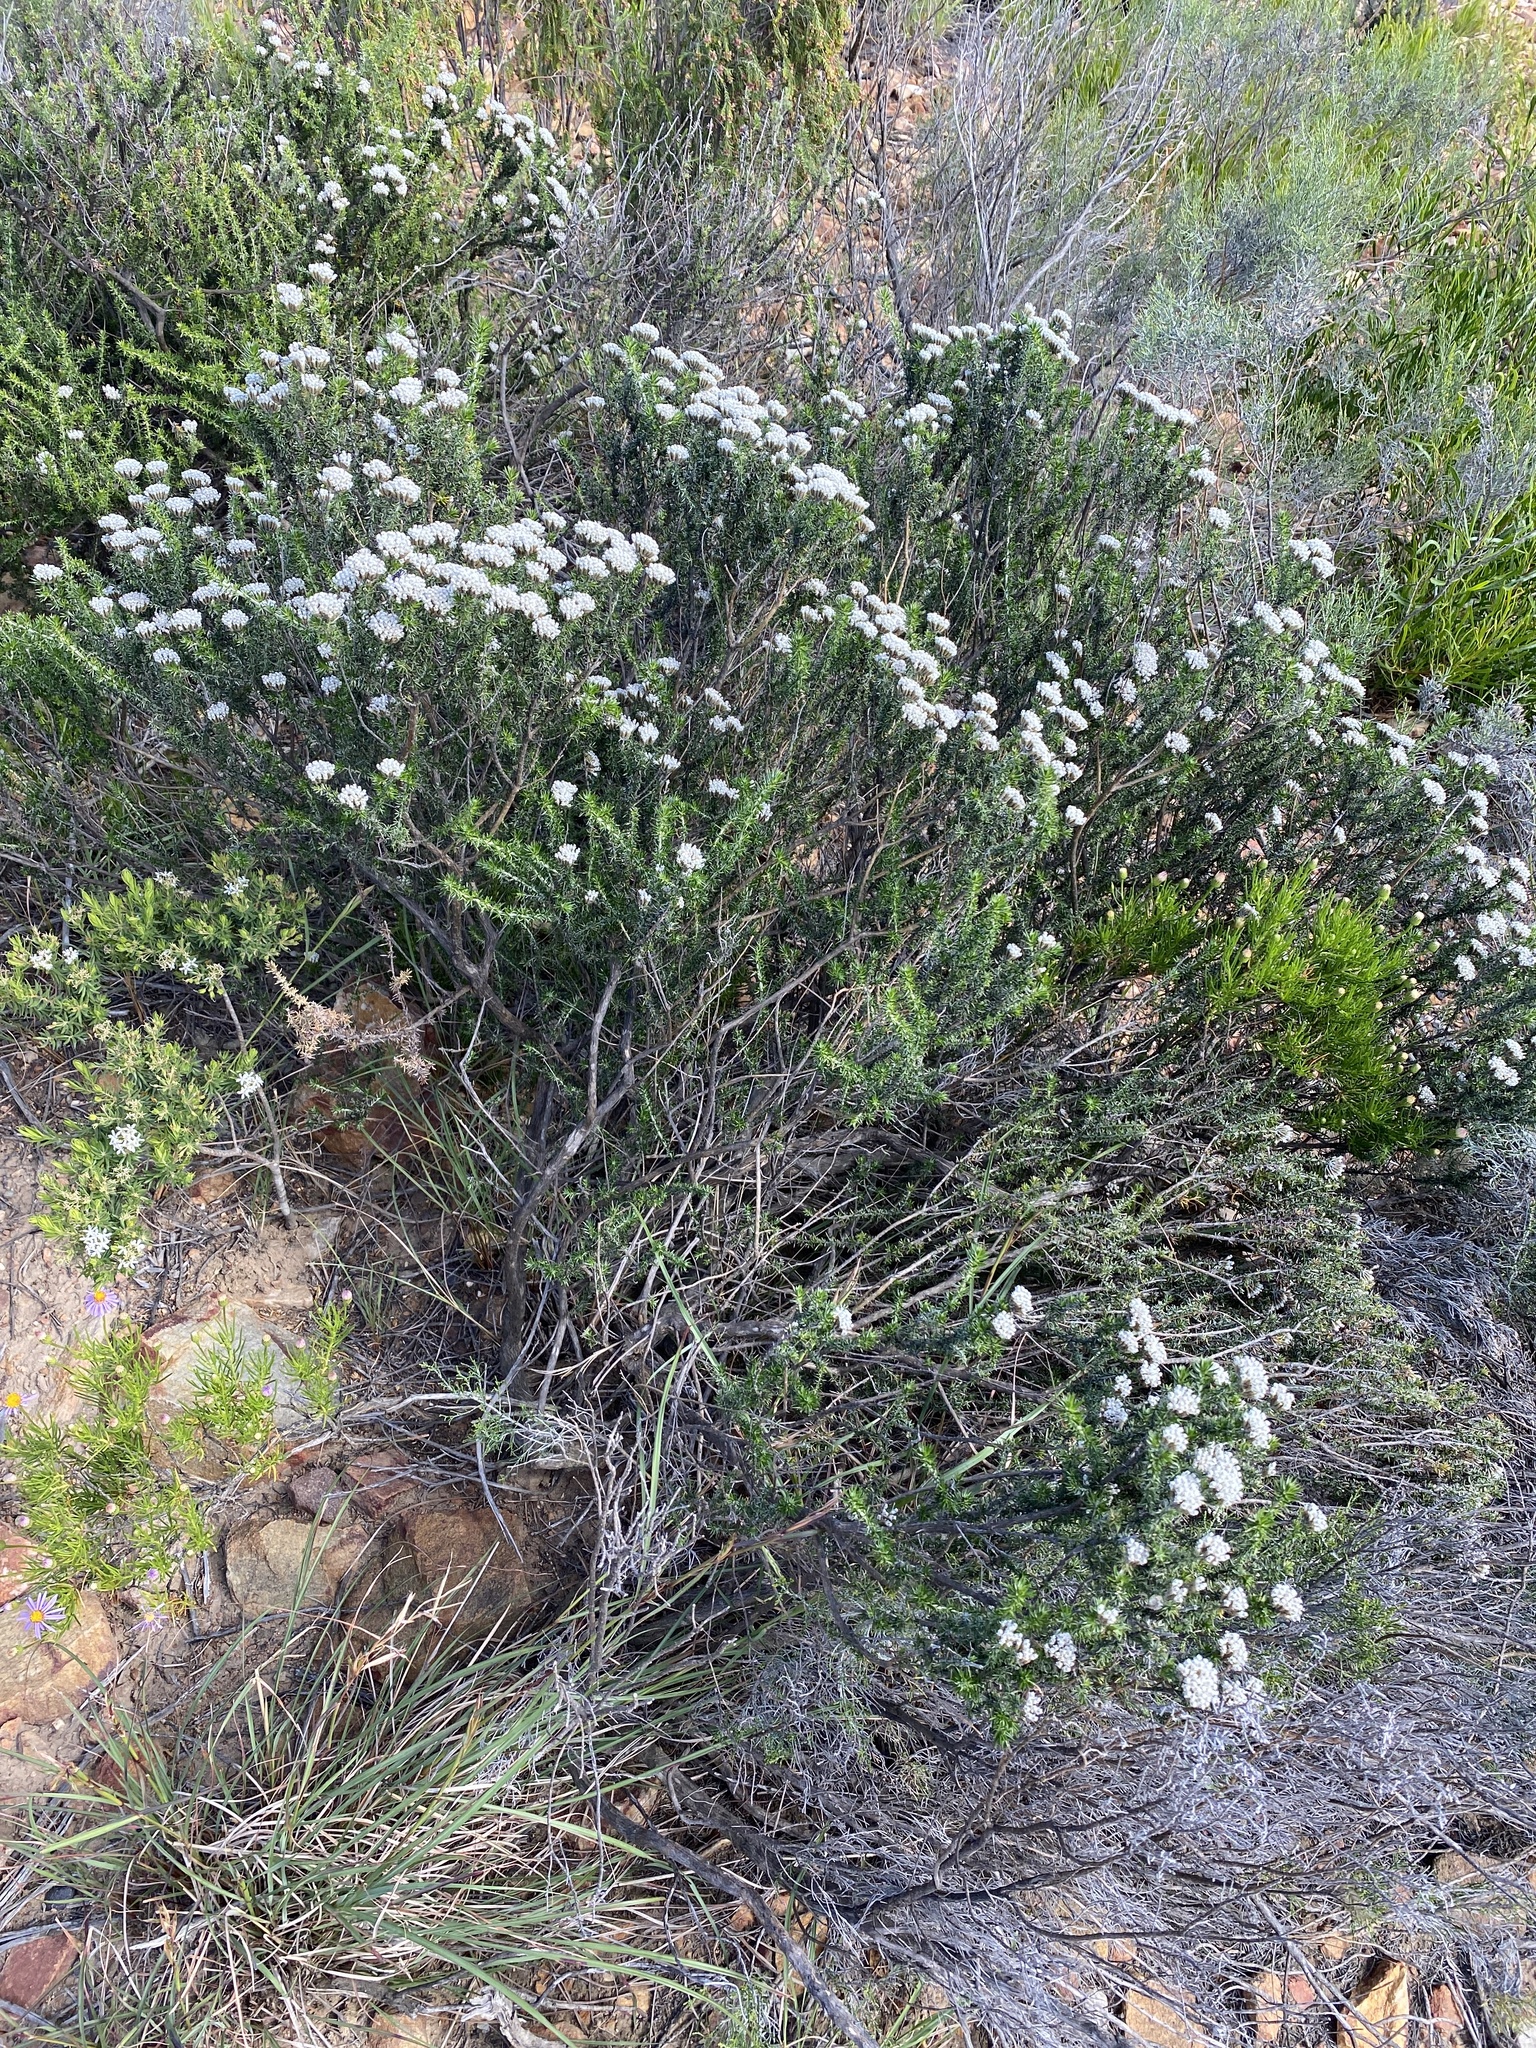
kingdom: Plantae
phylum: Tracheophyta
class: Magnoliopsida
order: Asterales
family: Asteraceae
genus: Metalasia
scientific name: Metalasia densa
